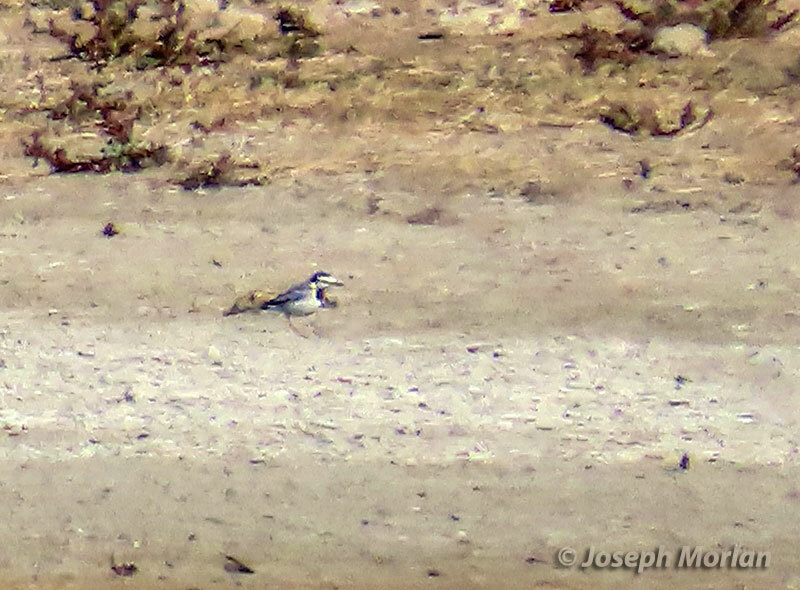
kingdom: Animalia
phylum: Chordata
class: Aves
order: Passeriformes
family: Motacillidae
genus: Motacilla
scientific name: Motacilla alba
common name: White wagtail
